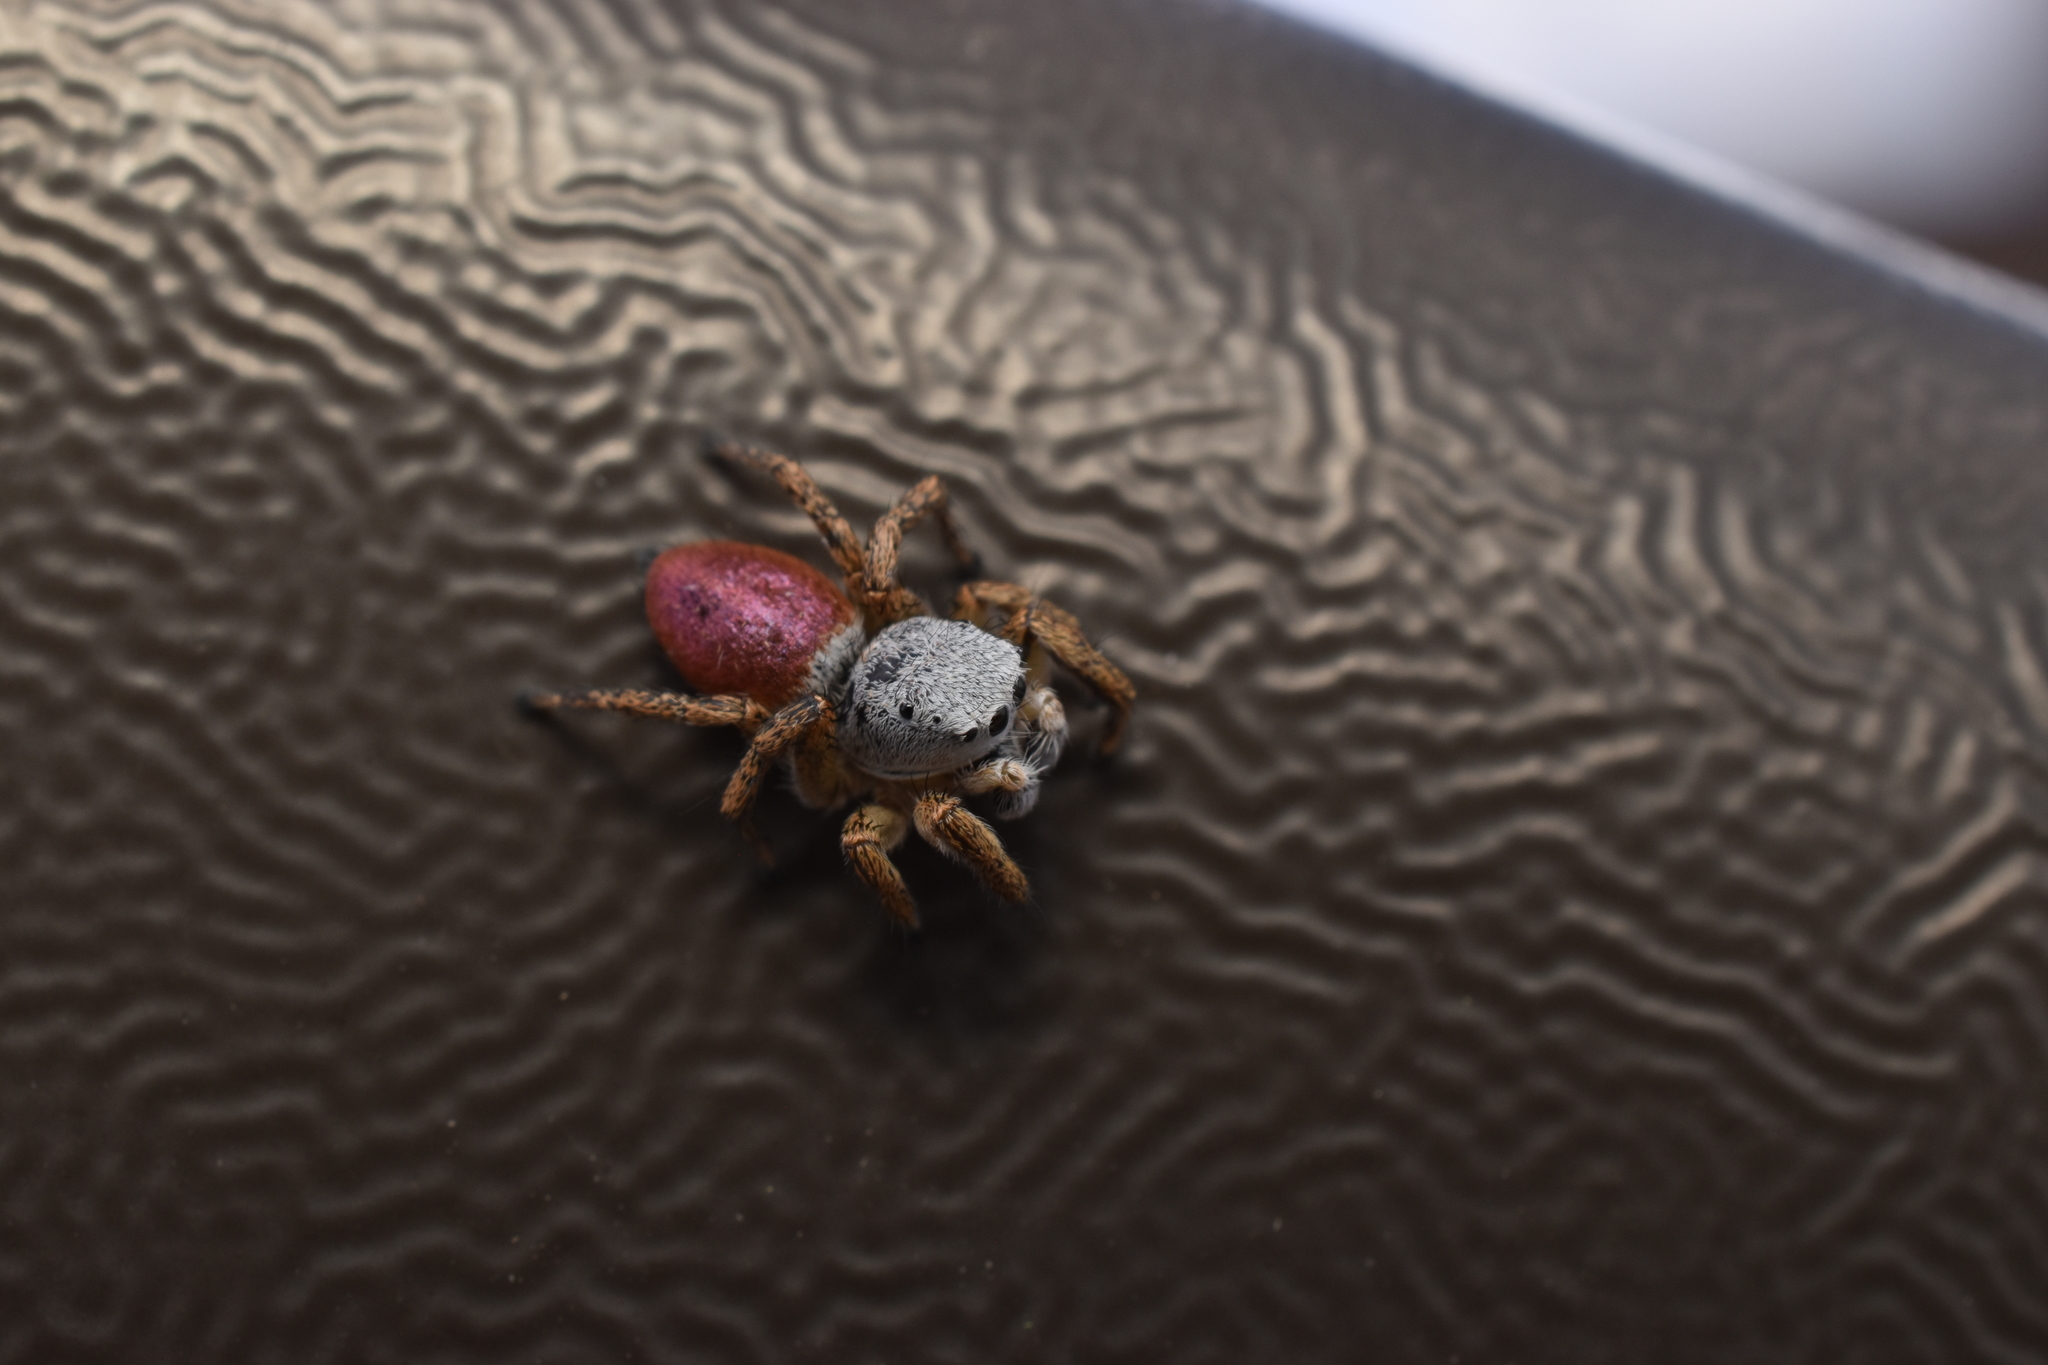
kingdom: Animalia
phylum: Arthropoda
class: Arachnida
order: Araneae
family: Salticidae
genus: Habronattus
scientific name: Habronattus decorus
